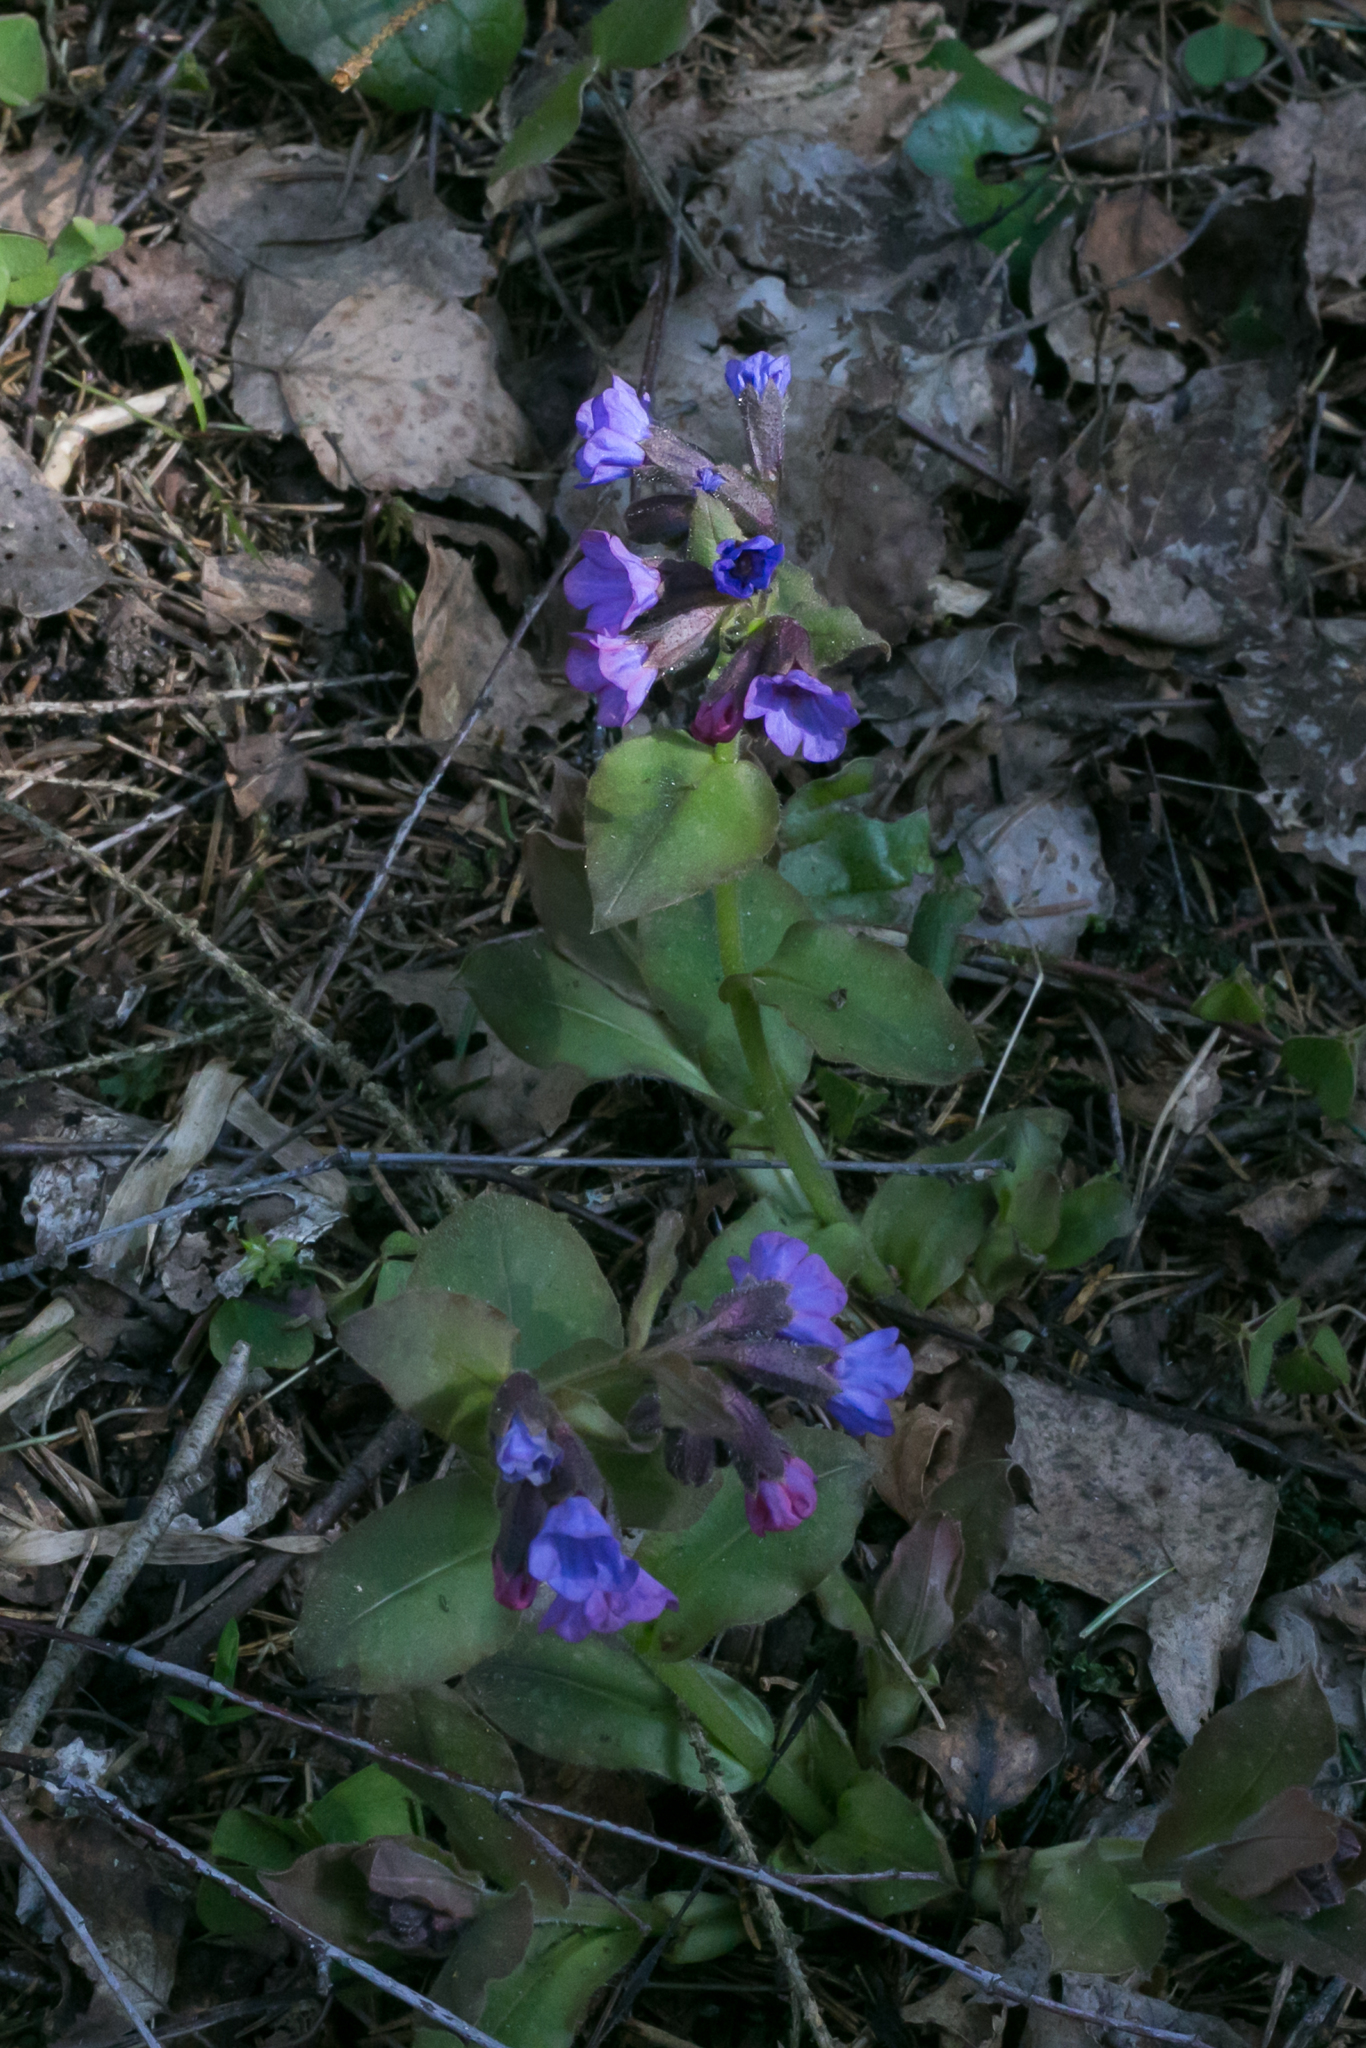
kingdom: Plantae
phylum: Tracheophyta
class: Magnoliopsida
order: Boraginales
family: Boraginaceae
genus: Pulmonaria
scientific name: Pulmonaria obscura
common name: Suffolk lungwort
